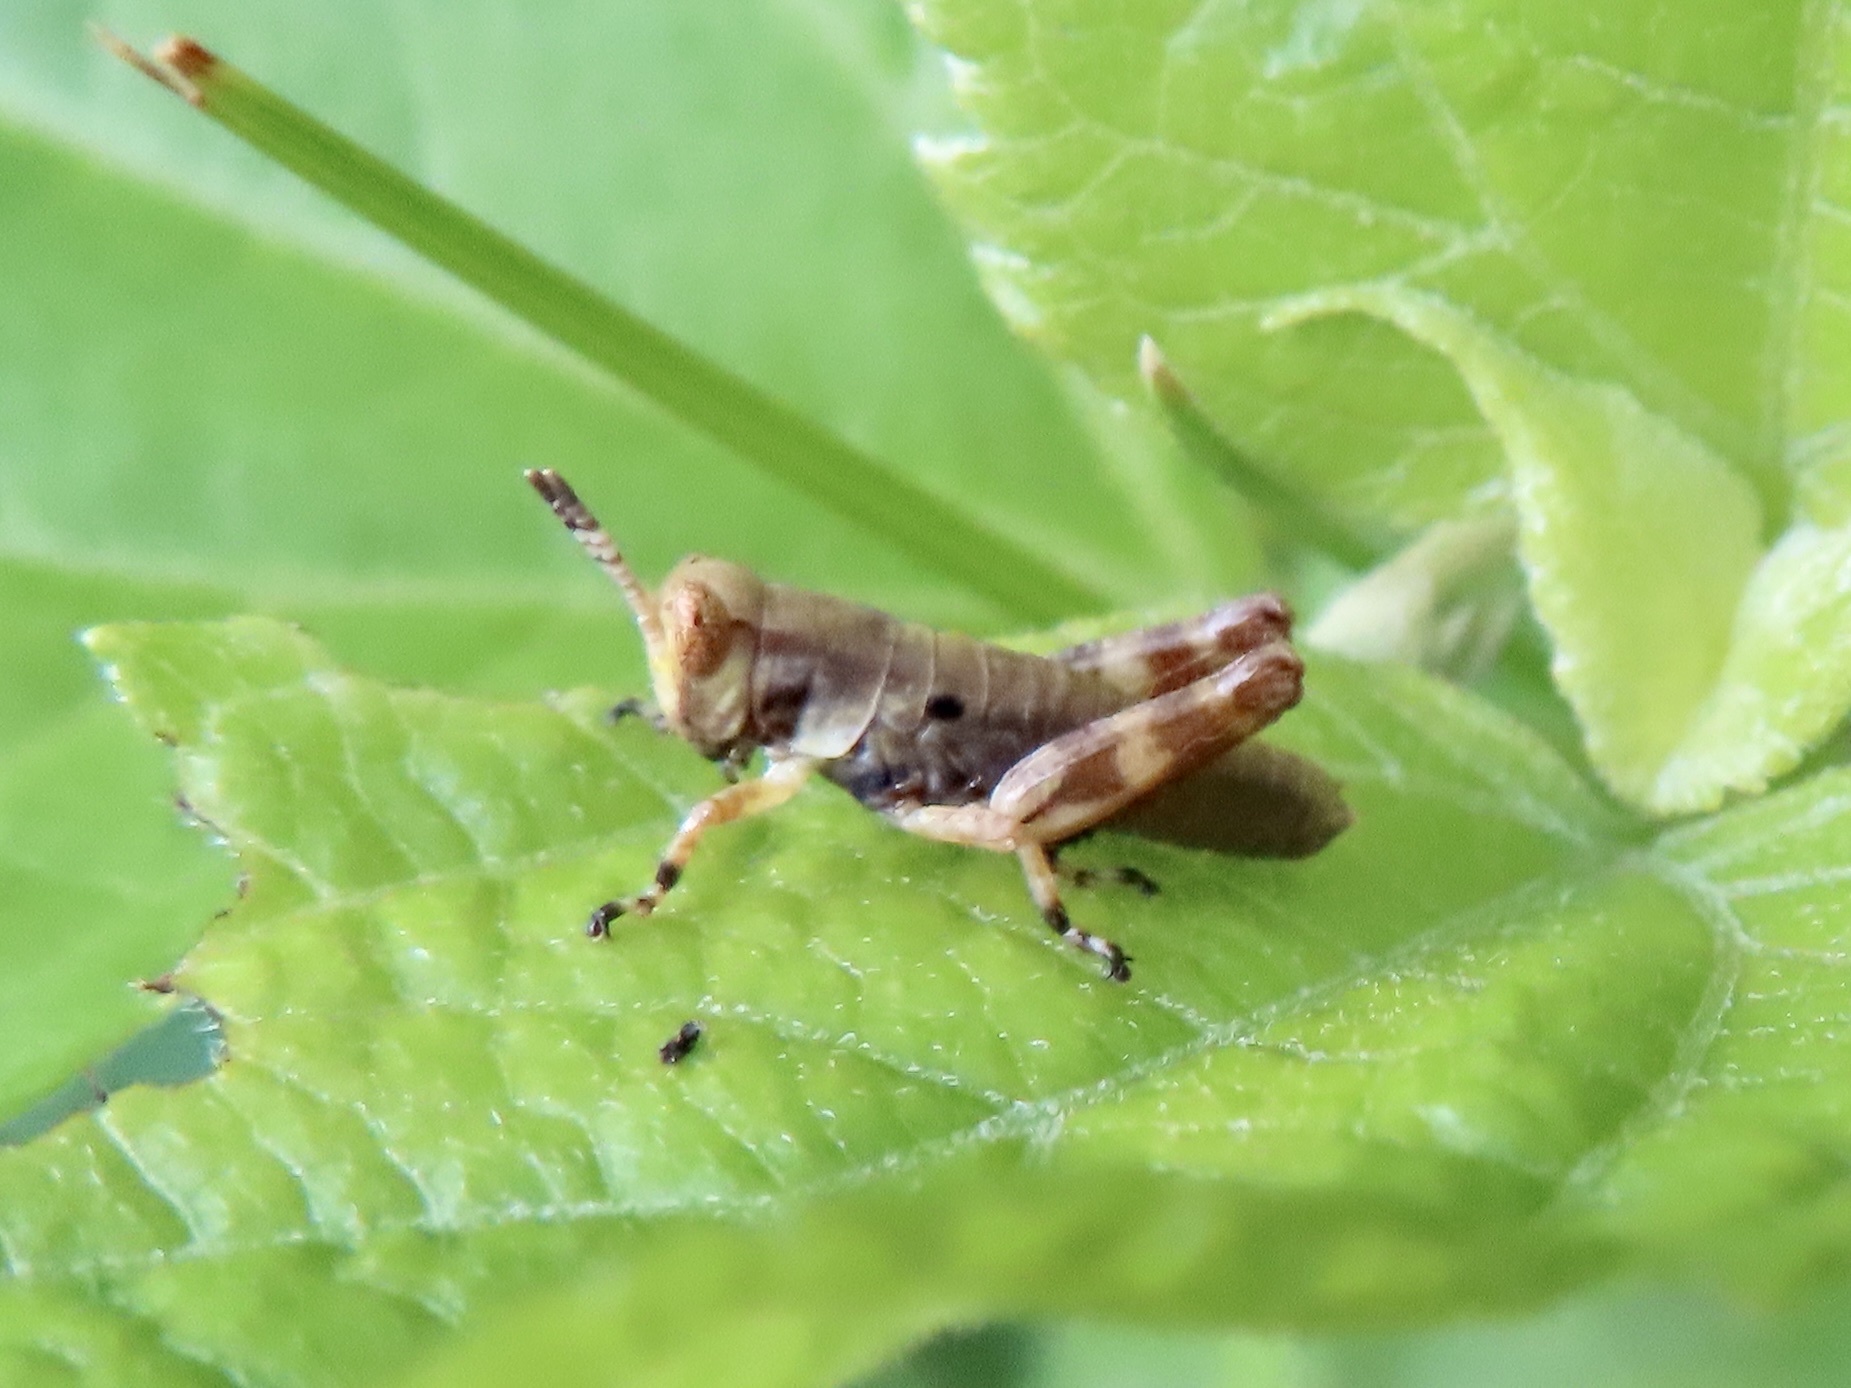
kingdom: Animalia
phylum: Arthropoda
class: Insecta
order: Orthoptera
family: Acrididae
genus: Melanoplus
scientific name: Melanoplus walshii
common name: Walsh's locust
